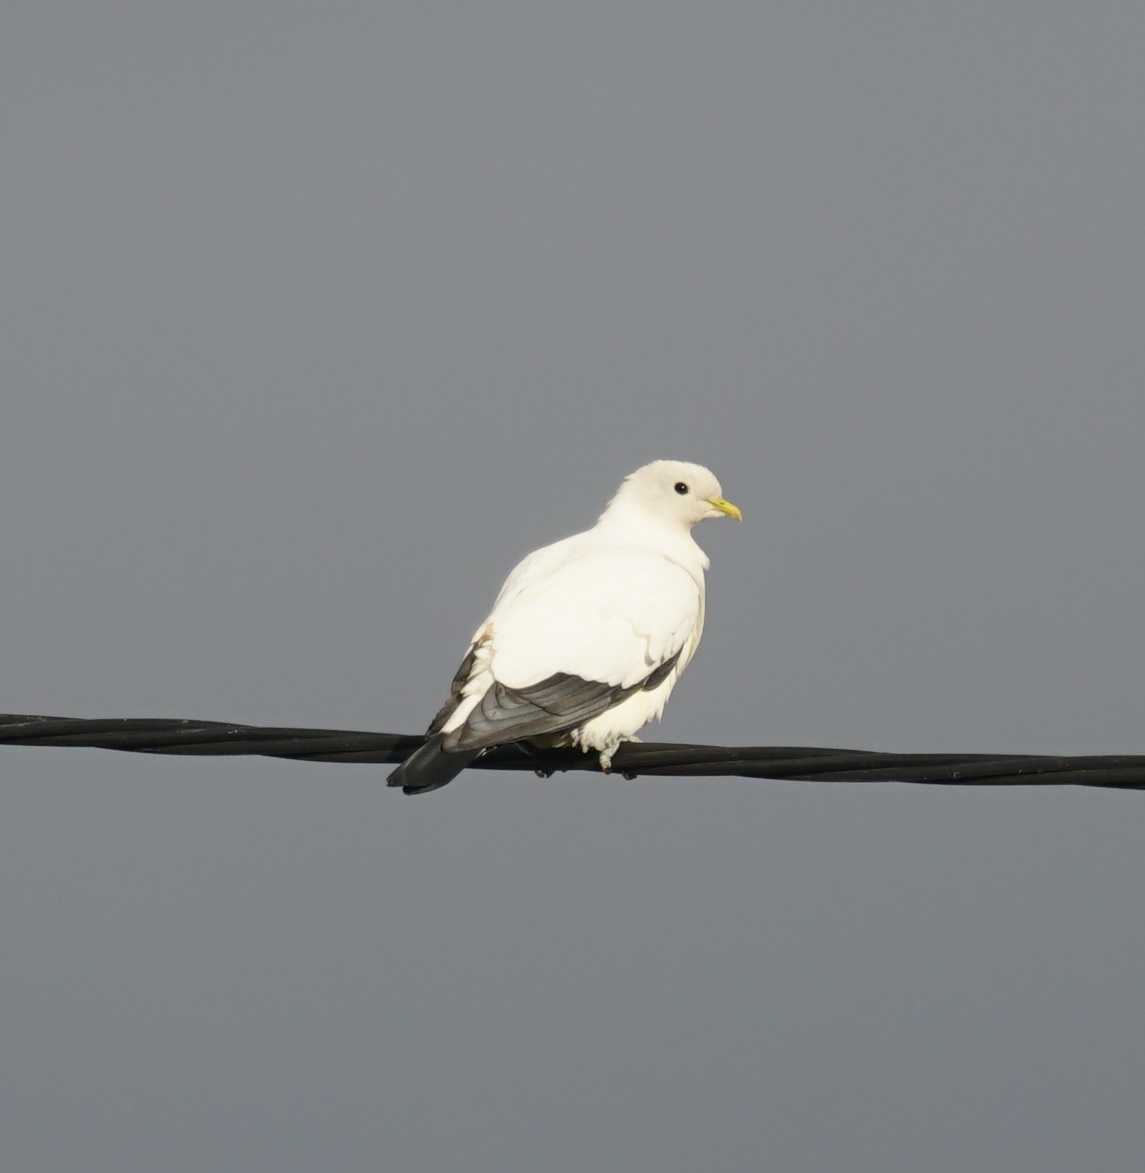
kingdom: Animalia
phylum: Chordata
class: Aves
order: Columbiformes
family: Columbidae
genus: Ducula
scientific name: Ducula spilorrhoa
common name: Torresian imperial pigeon
